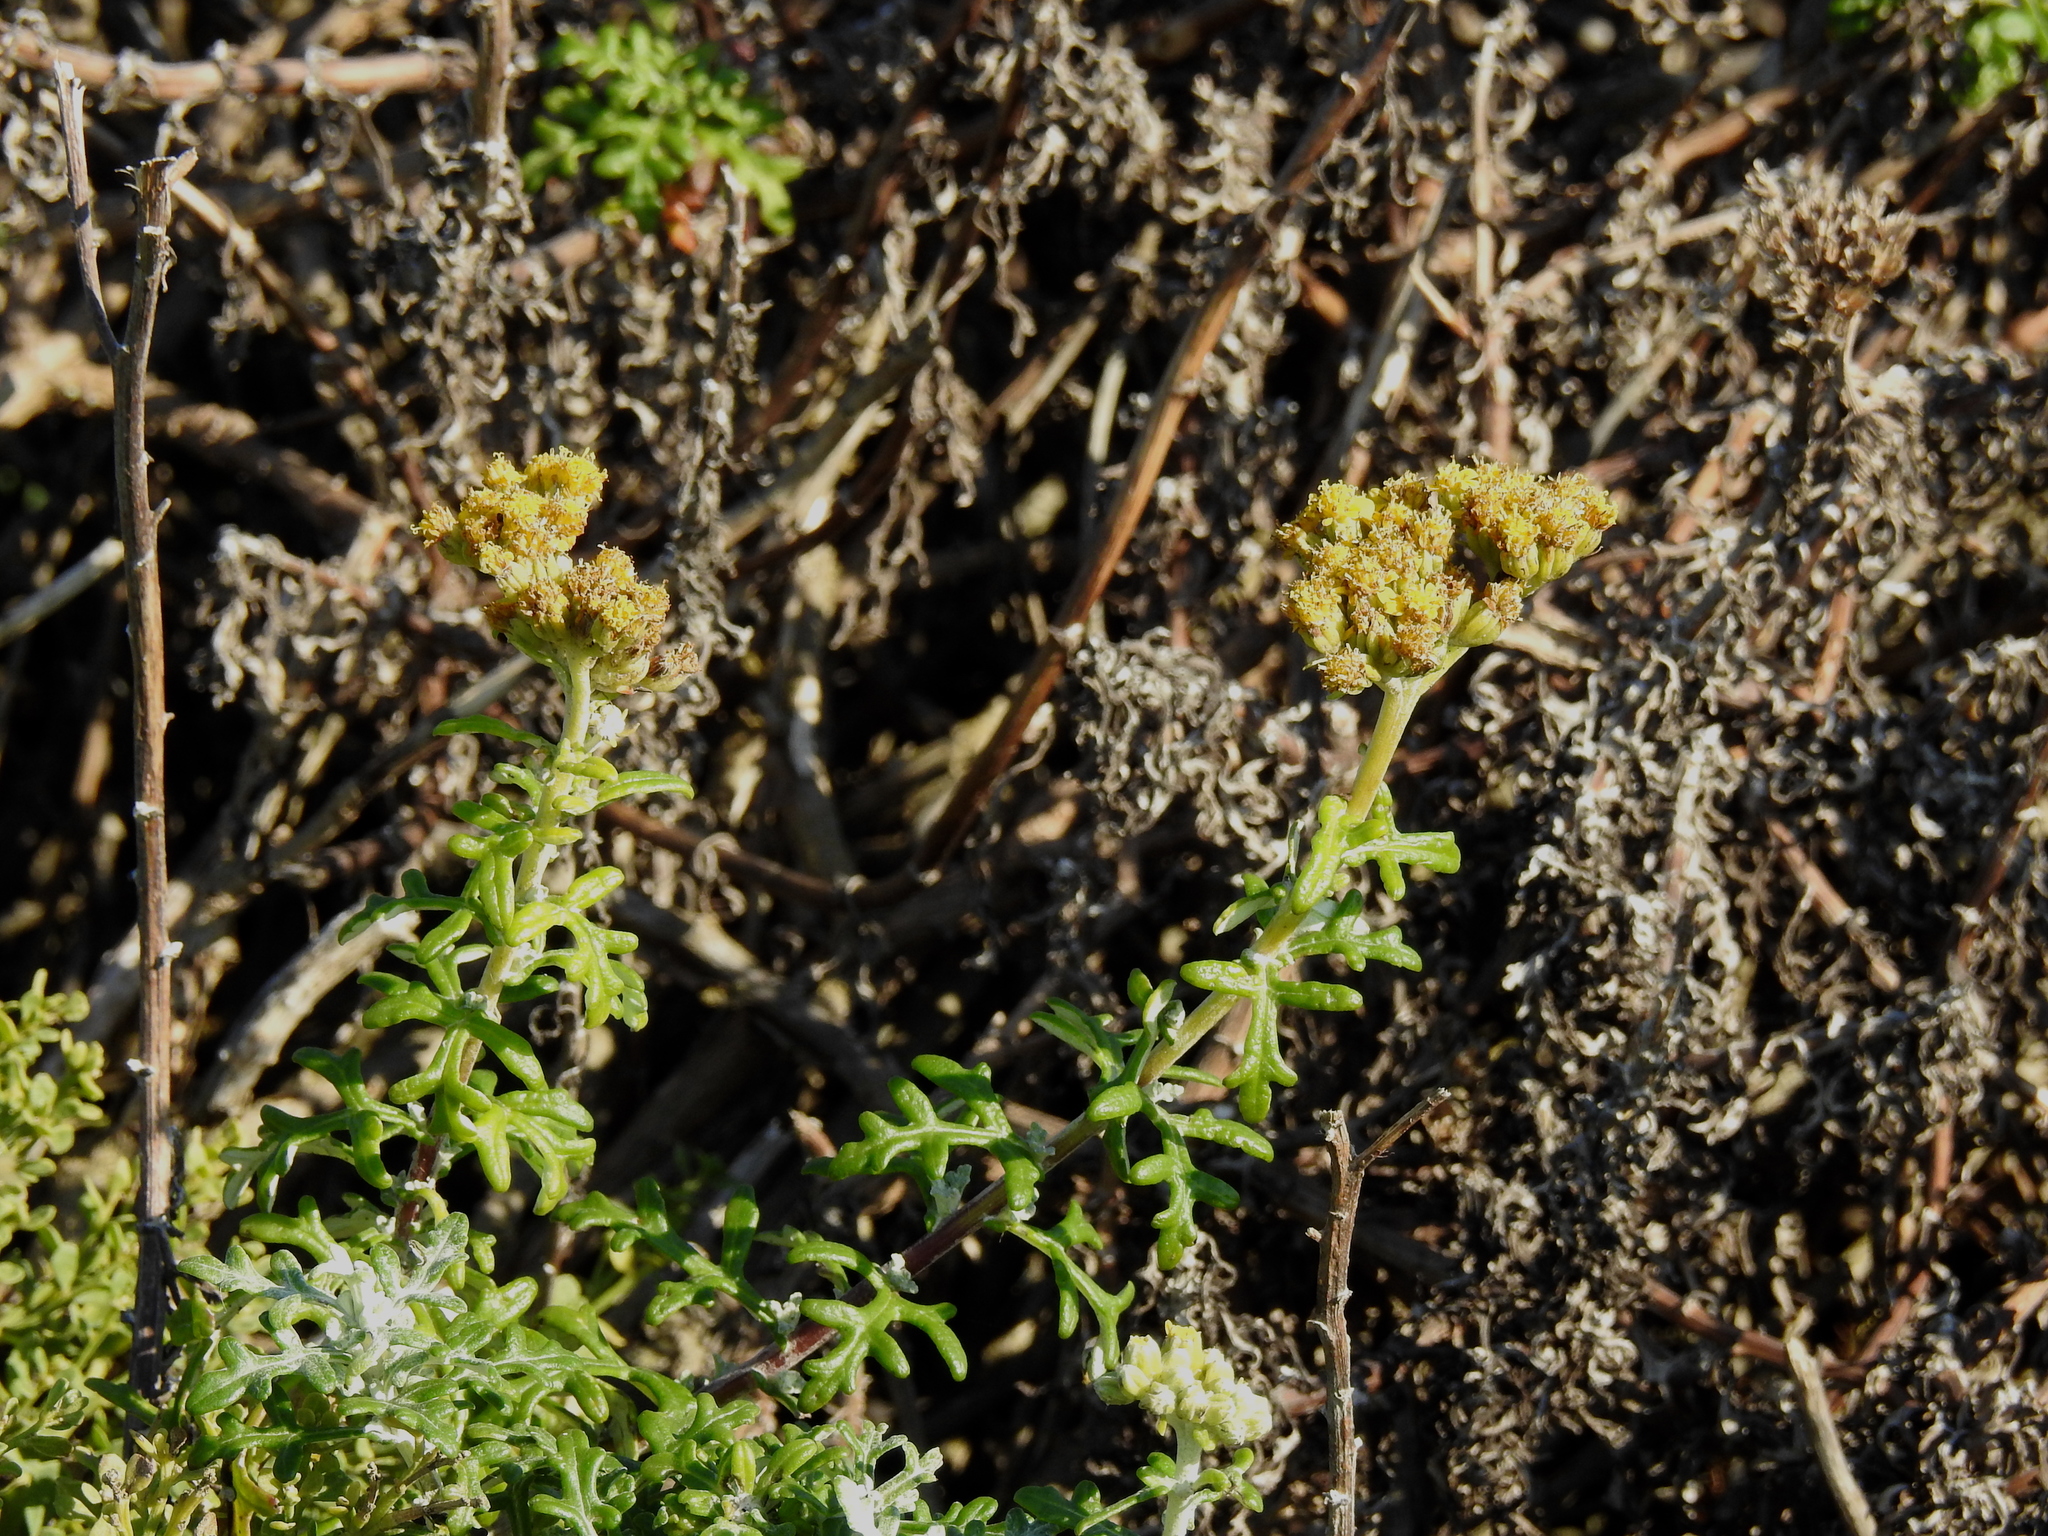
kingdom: Plantae
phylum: Tracheophyta
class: Magnoliopsida
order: Asterales
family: Asteraceae
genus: Eriophyllum
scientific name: Eriophyllum staechadifolium
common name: Lizardtail
